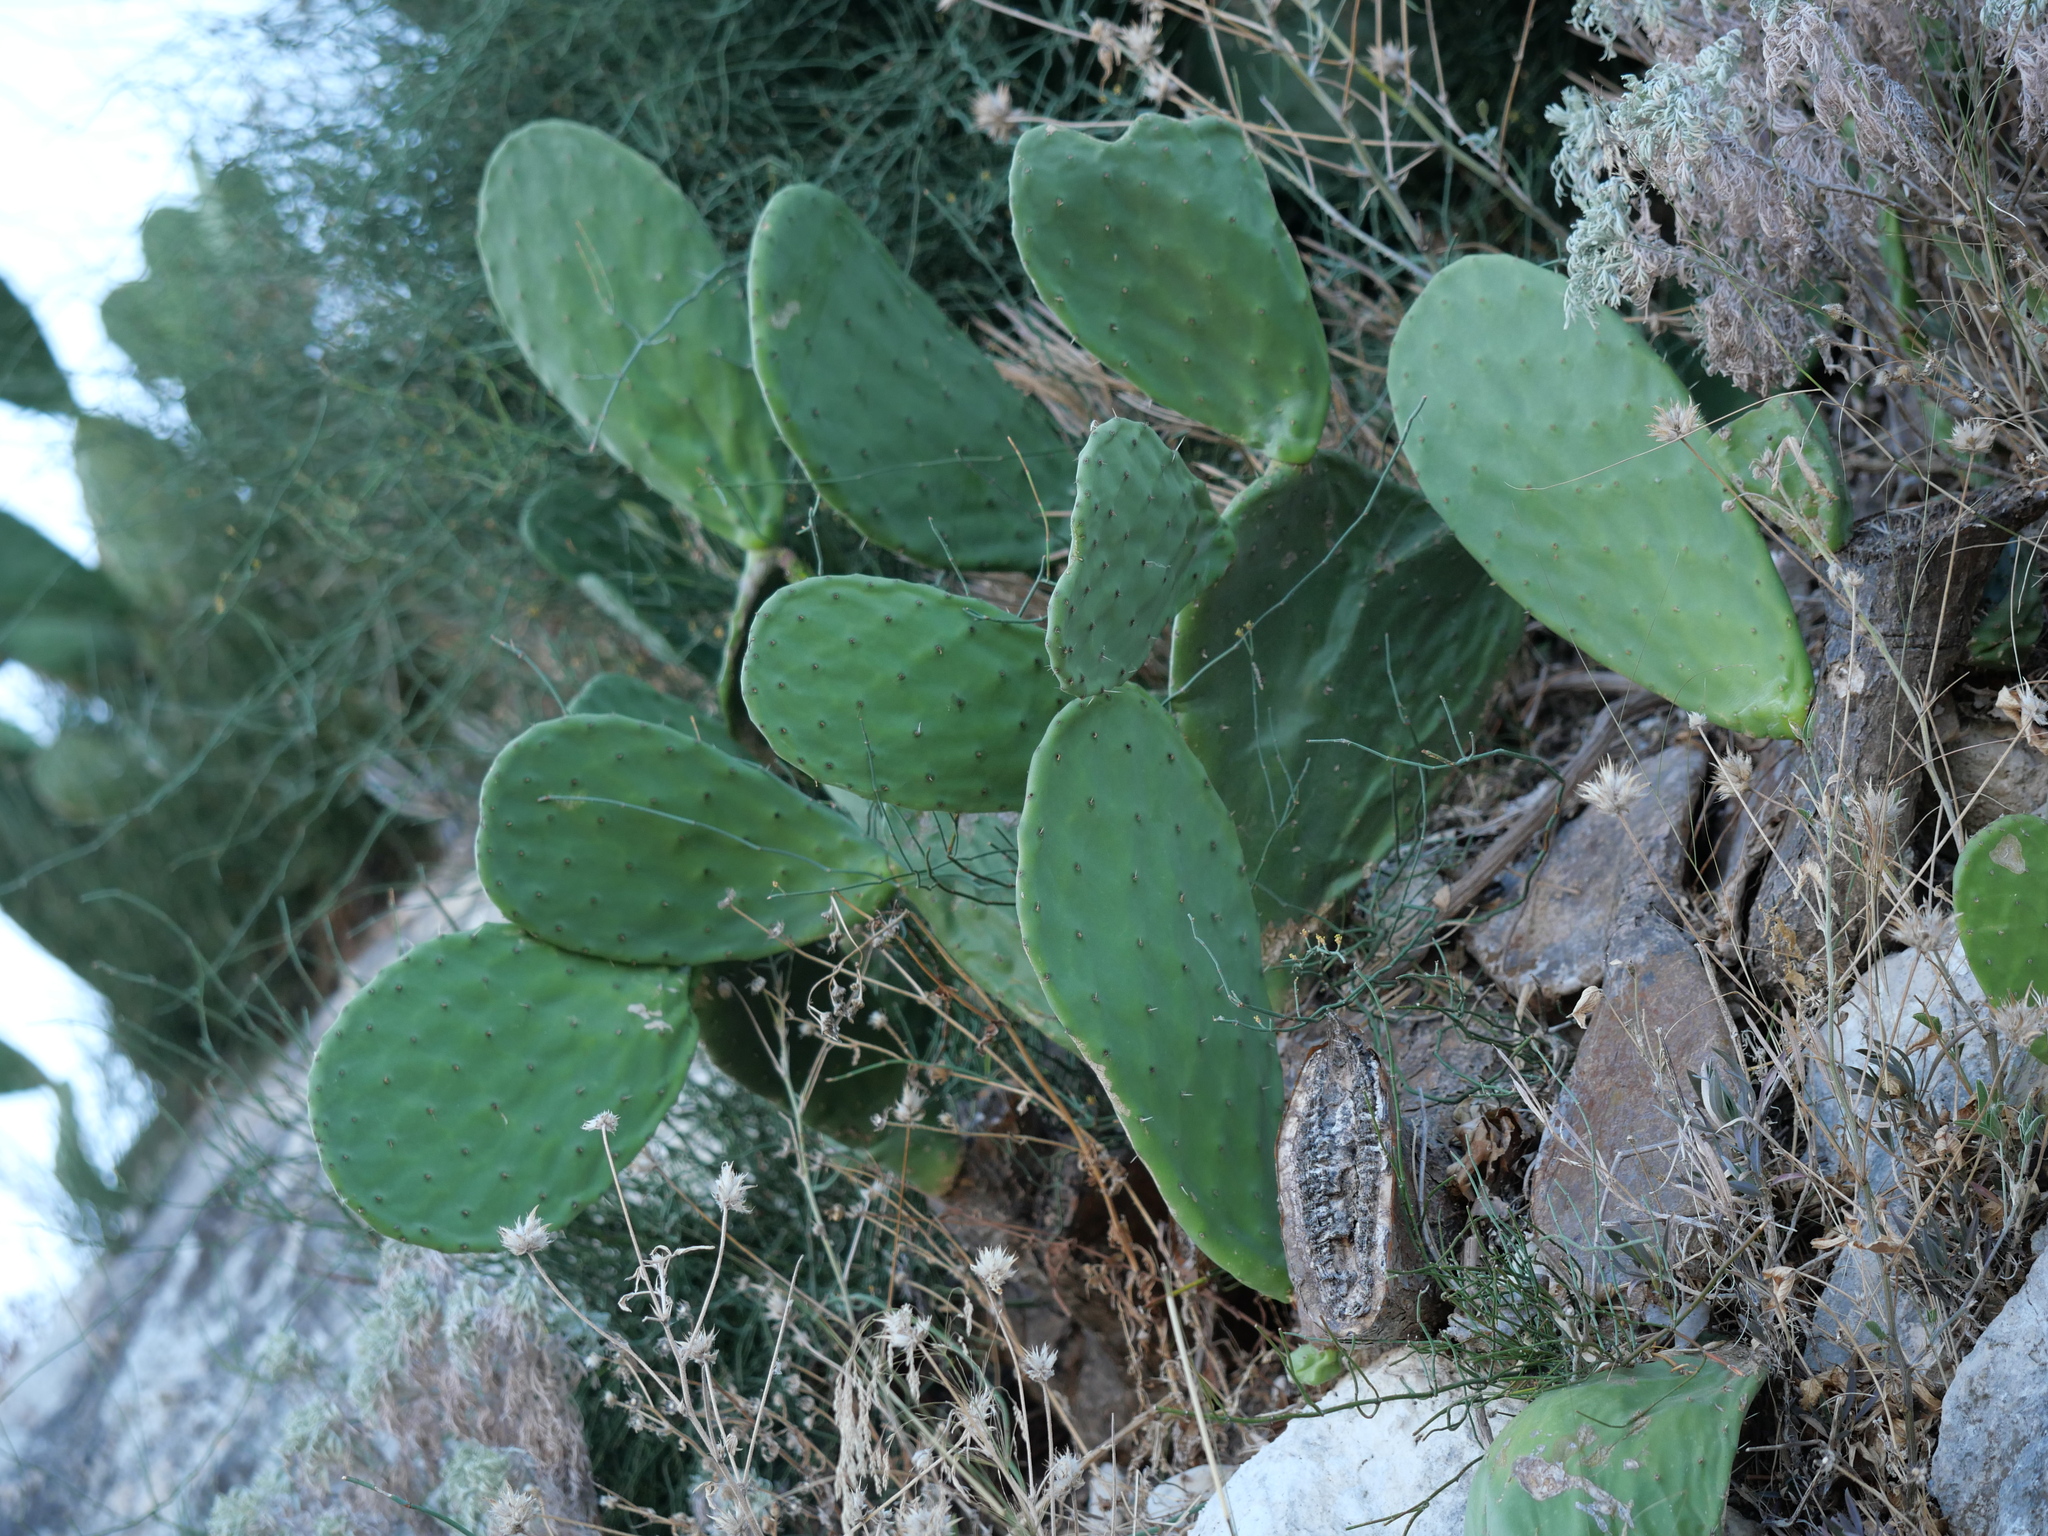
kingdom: Plantae
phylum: Tracheophyta
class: Magnoliopsida
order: Caryophyllales
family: Cactaceae
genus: Opuntia
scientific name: Opuntia ficus-indica
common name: Barbary fig
